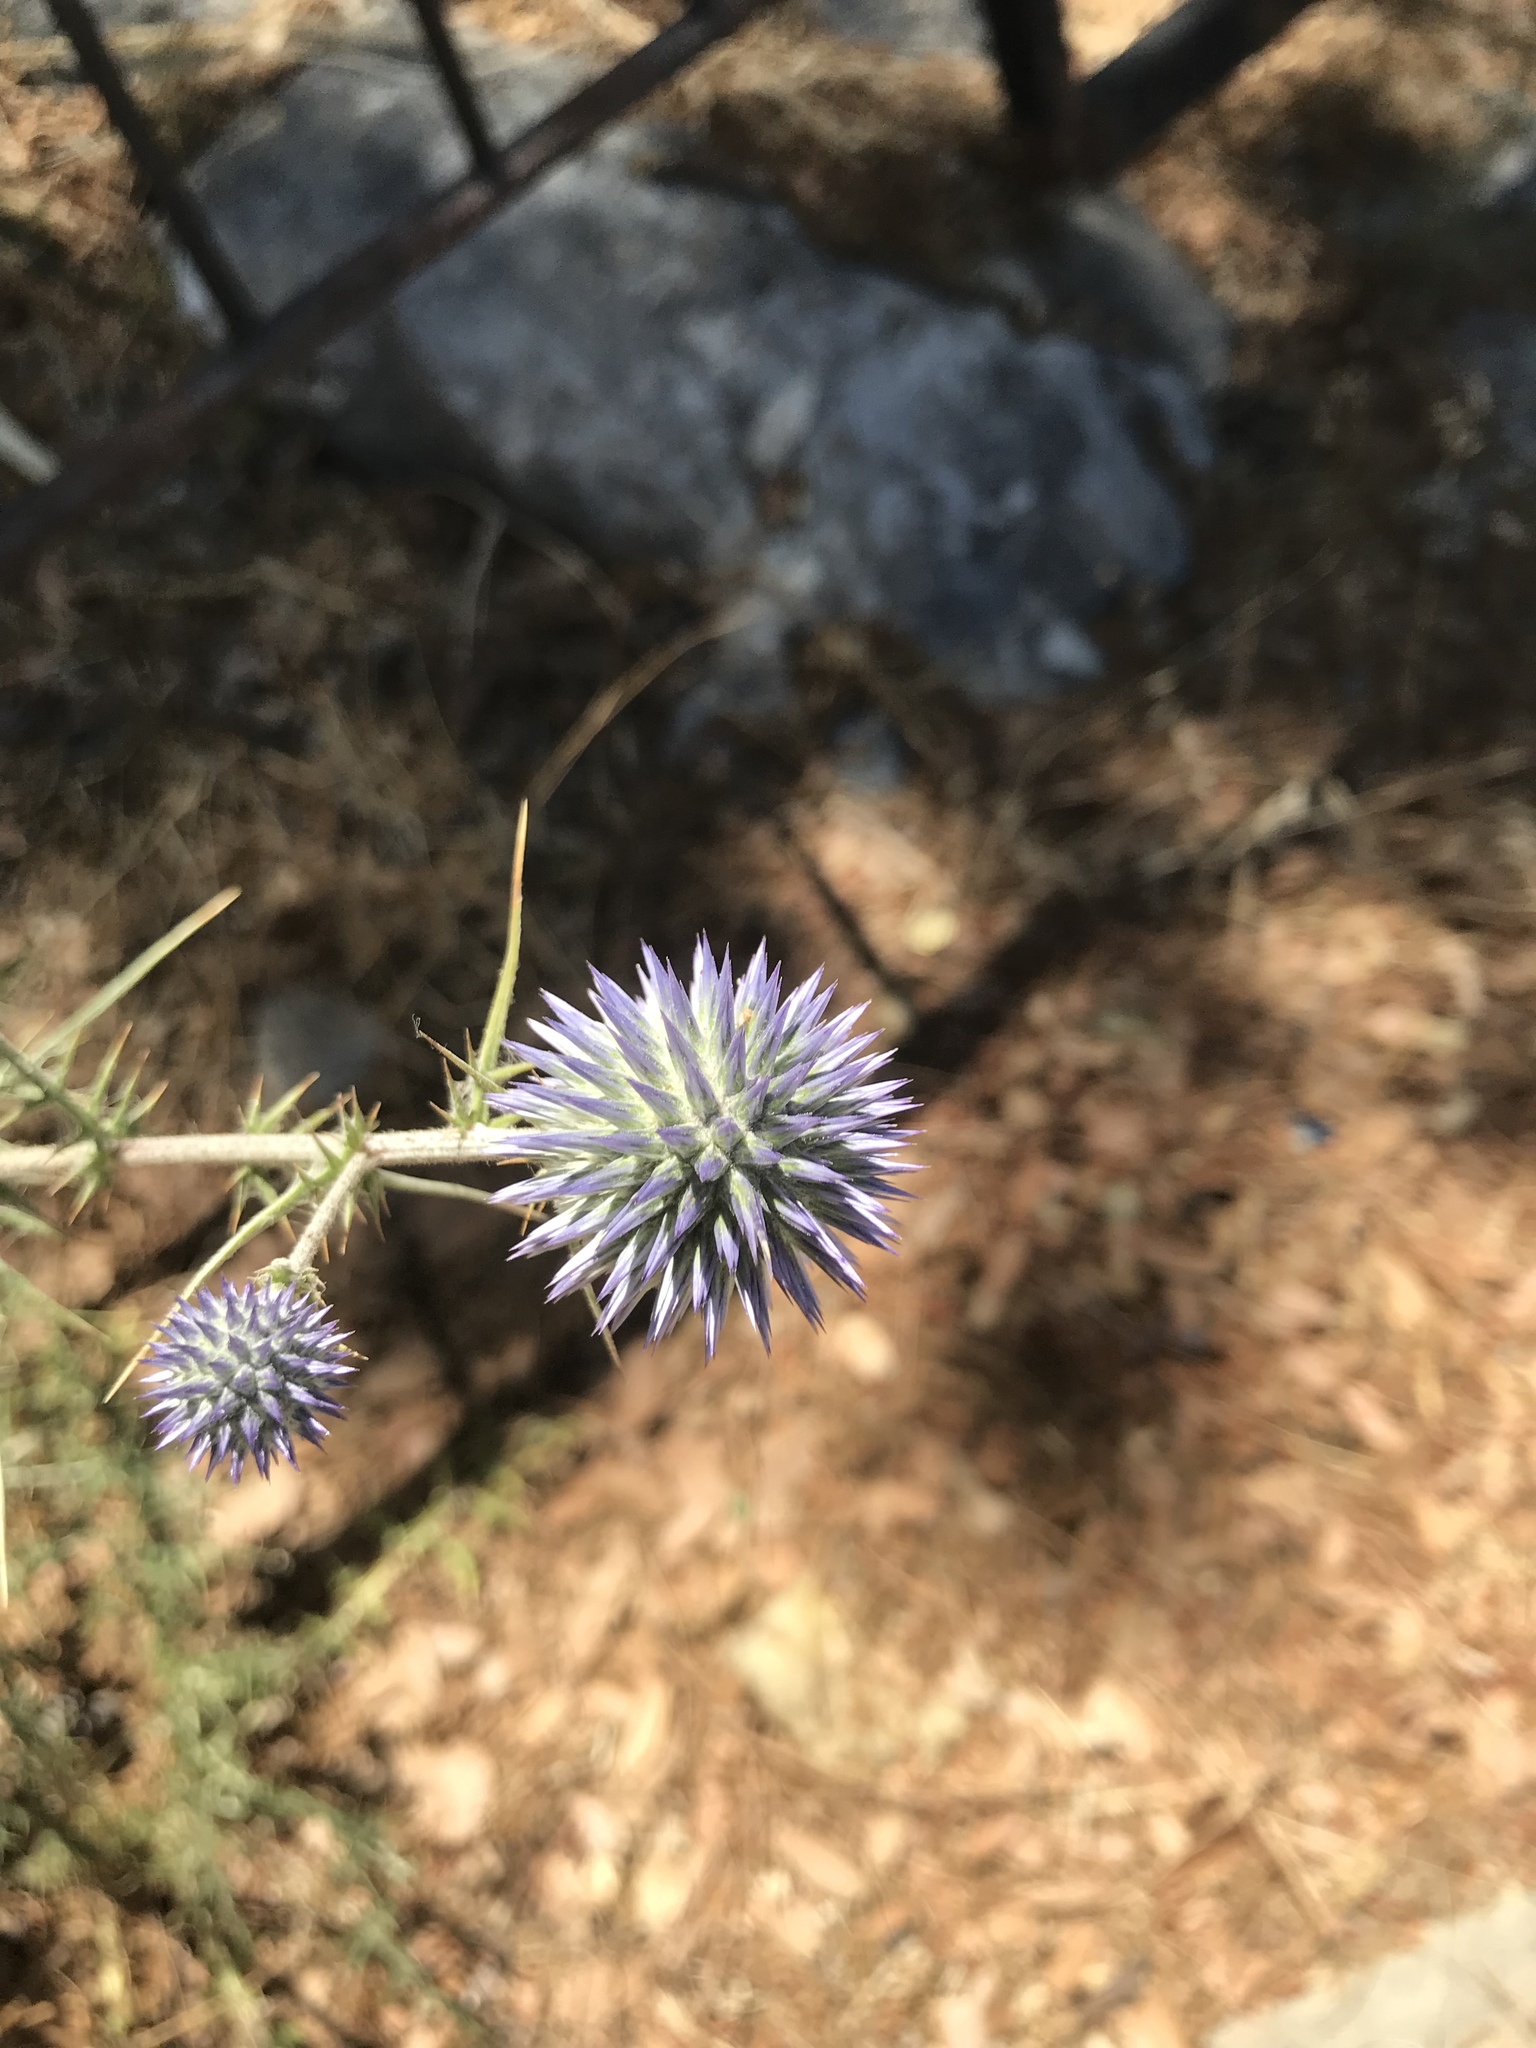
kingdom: Plantae
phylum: Tracheophyta
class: Magnoliopsida
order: Asterales
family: Asteraceae
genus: Echinops
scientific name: Echinops adenocaulos
